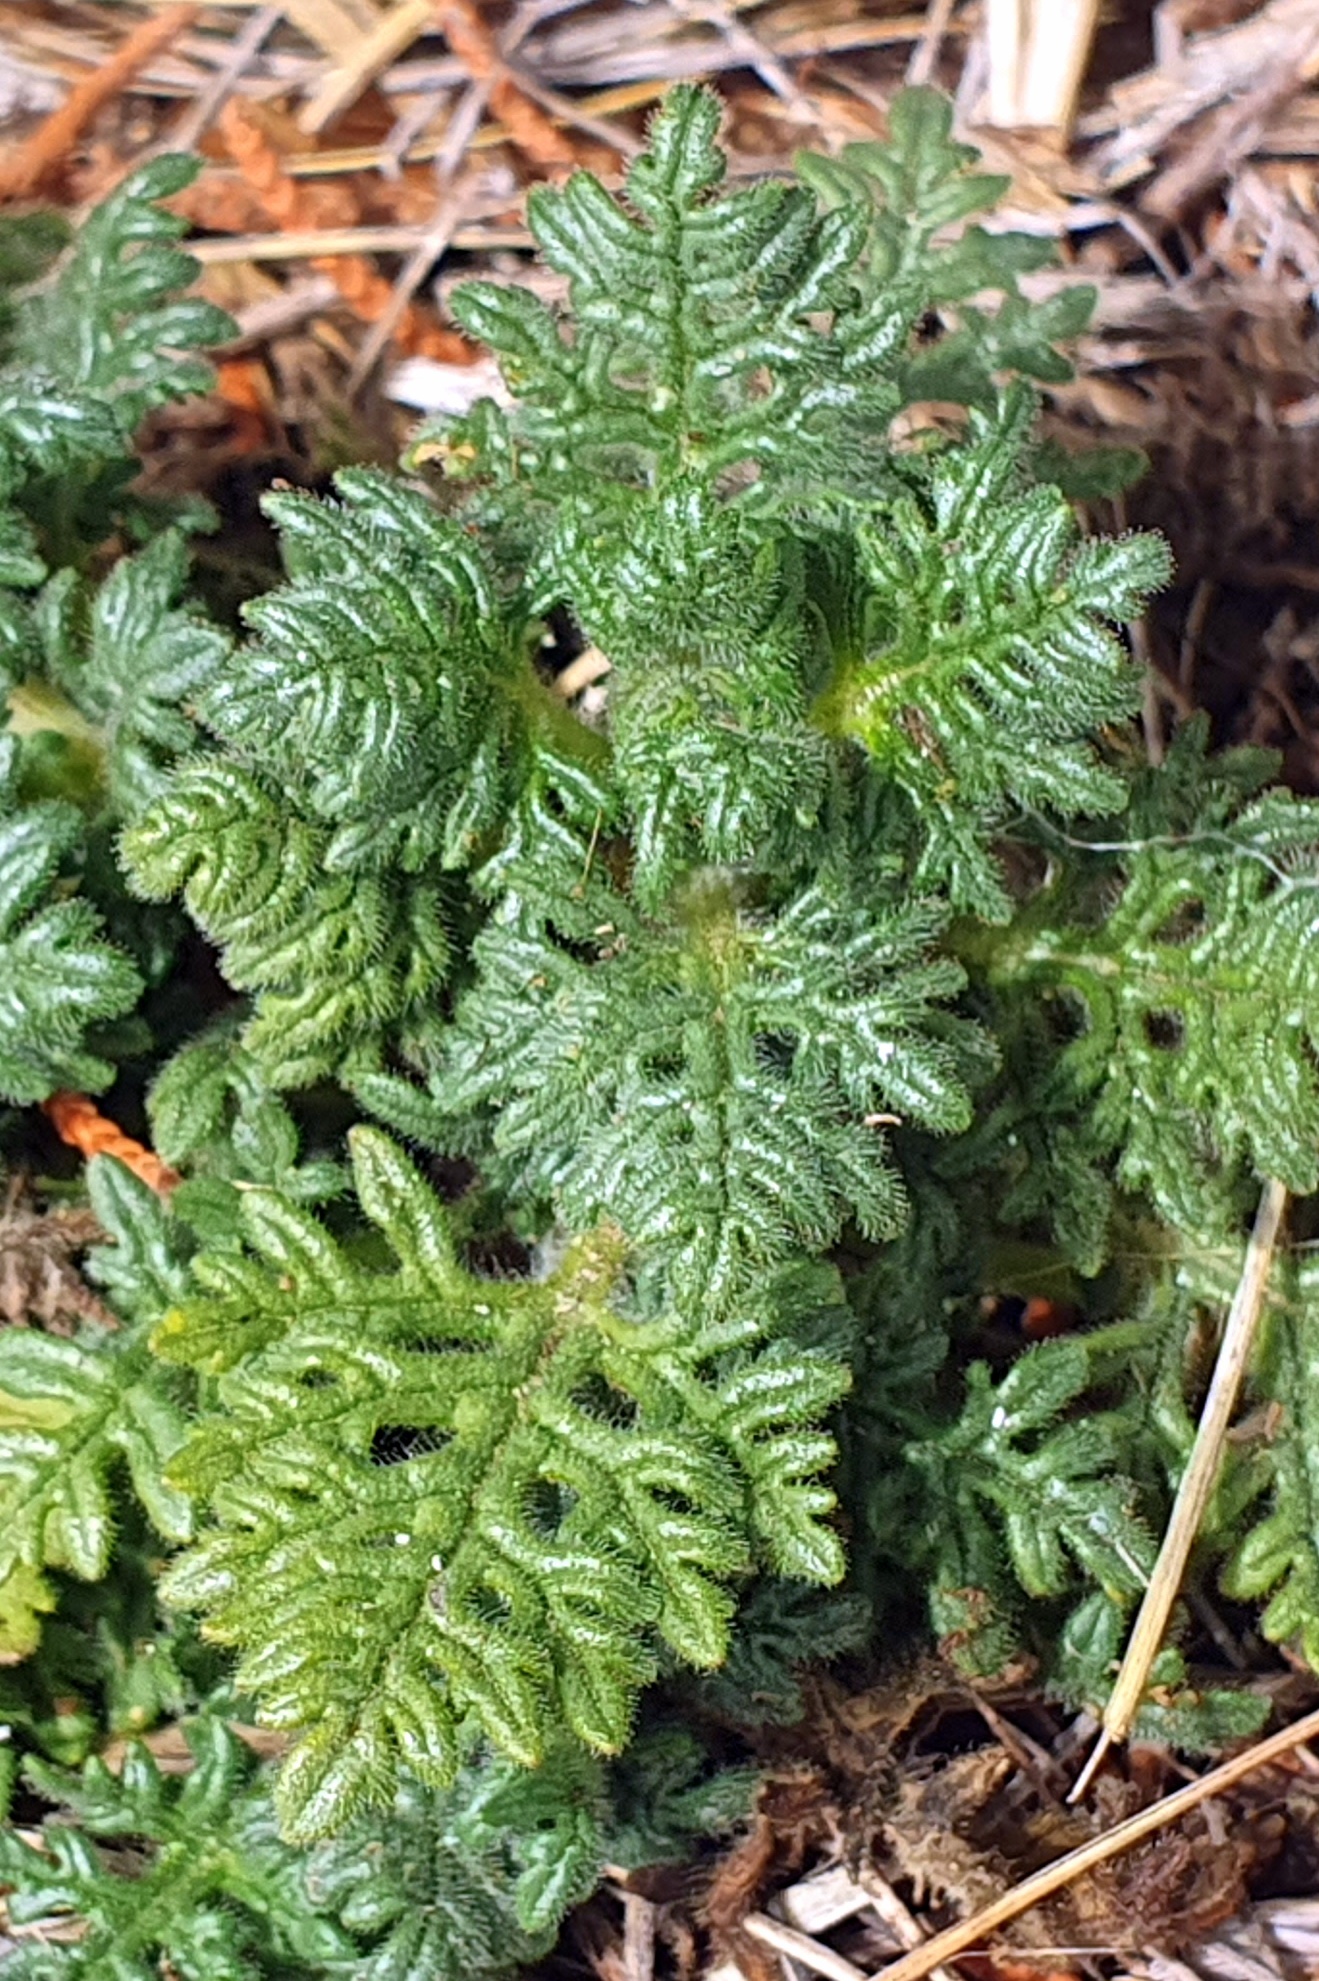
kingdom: Plantae
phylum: Tracheophyta
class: Magnoliopsida
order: Lamiales
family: Lamiaceae
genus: Teucrium
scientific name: Teucrium botrys
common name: Cut-leaved germander
